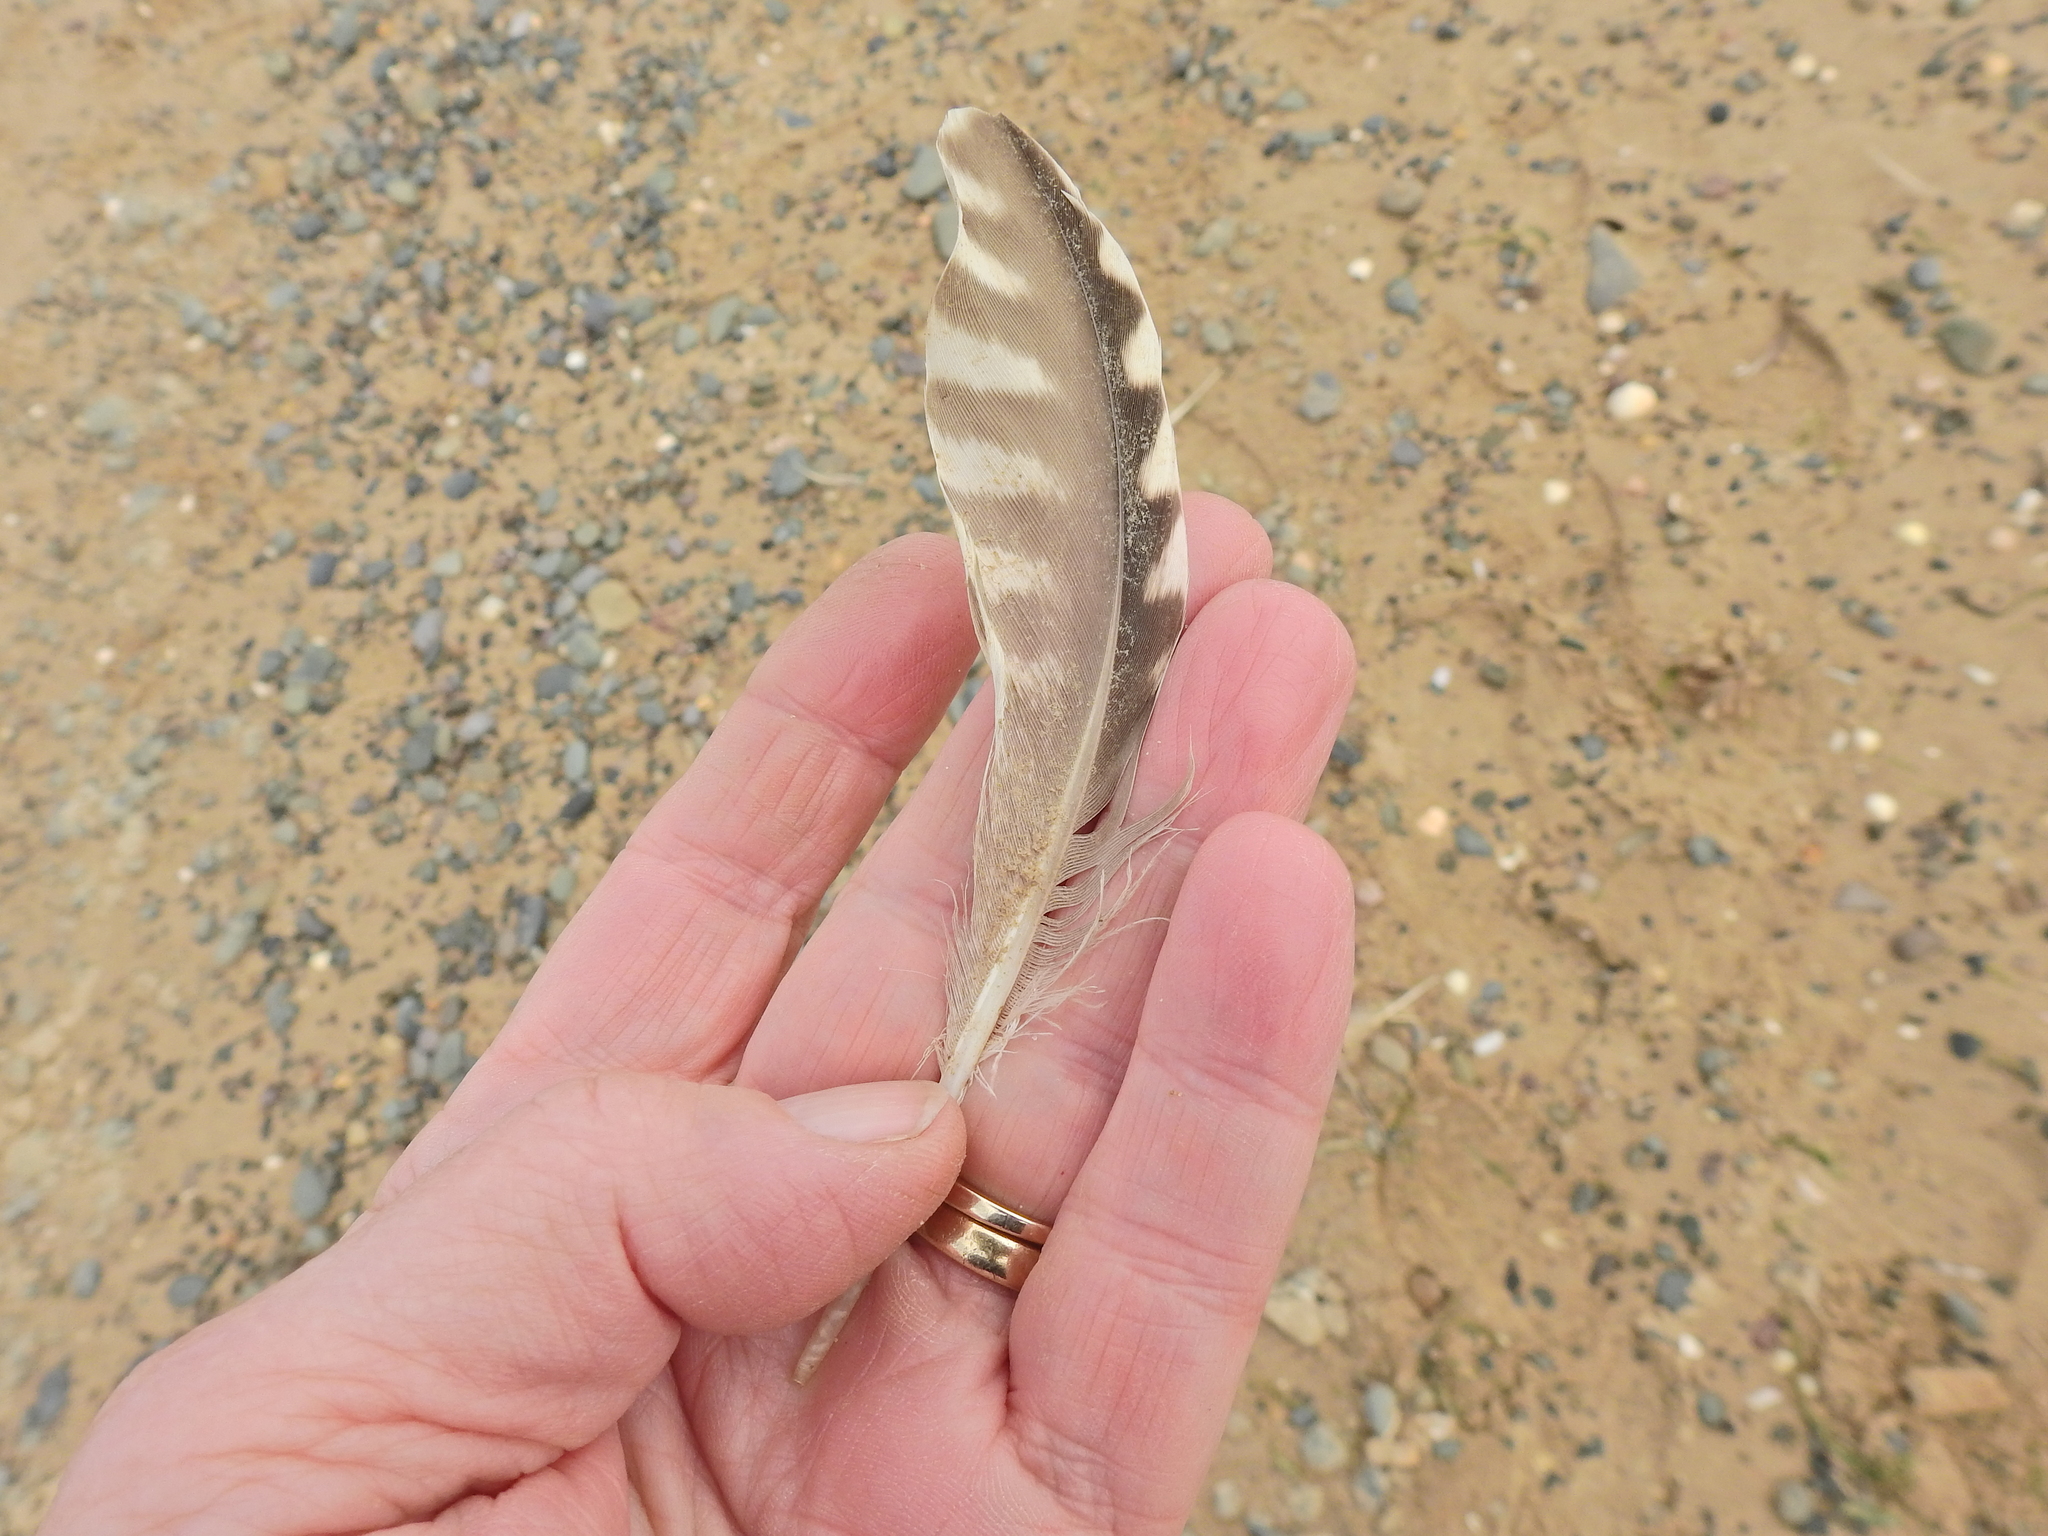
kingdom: Animalia
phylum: Chordata
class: Aves
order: Charadriiformes
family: Scolopacidae
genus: Numenius
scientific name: Numenius arquata
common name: Eurasian curlew
